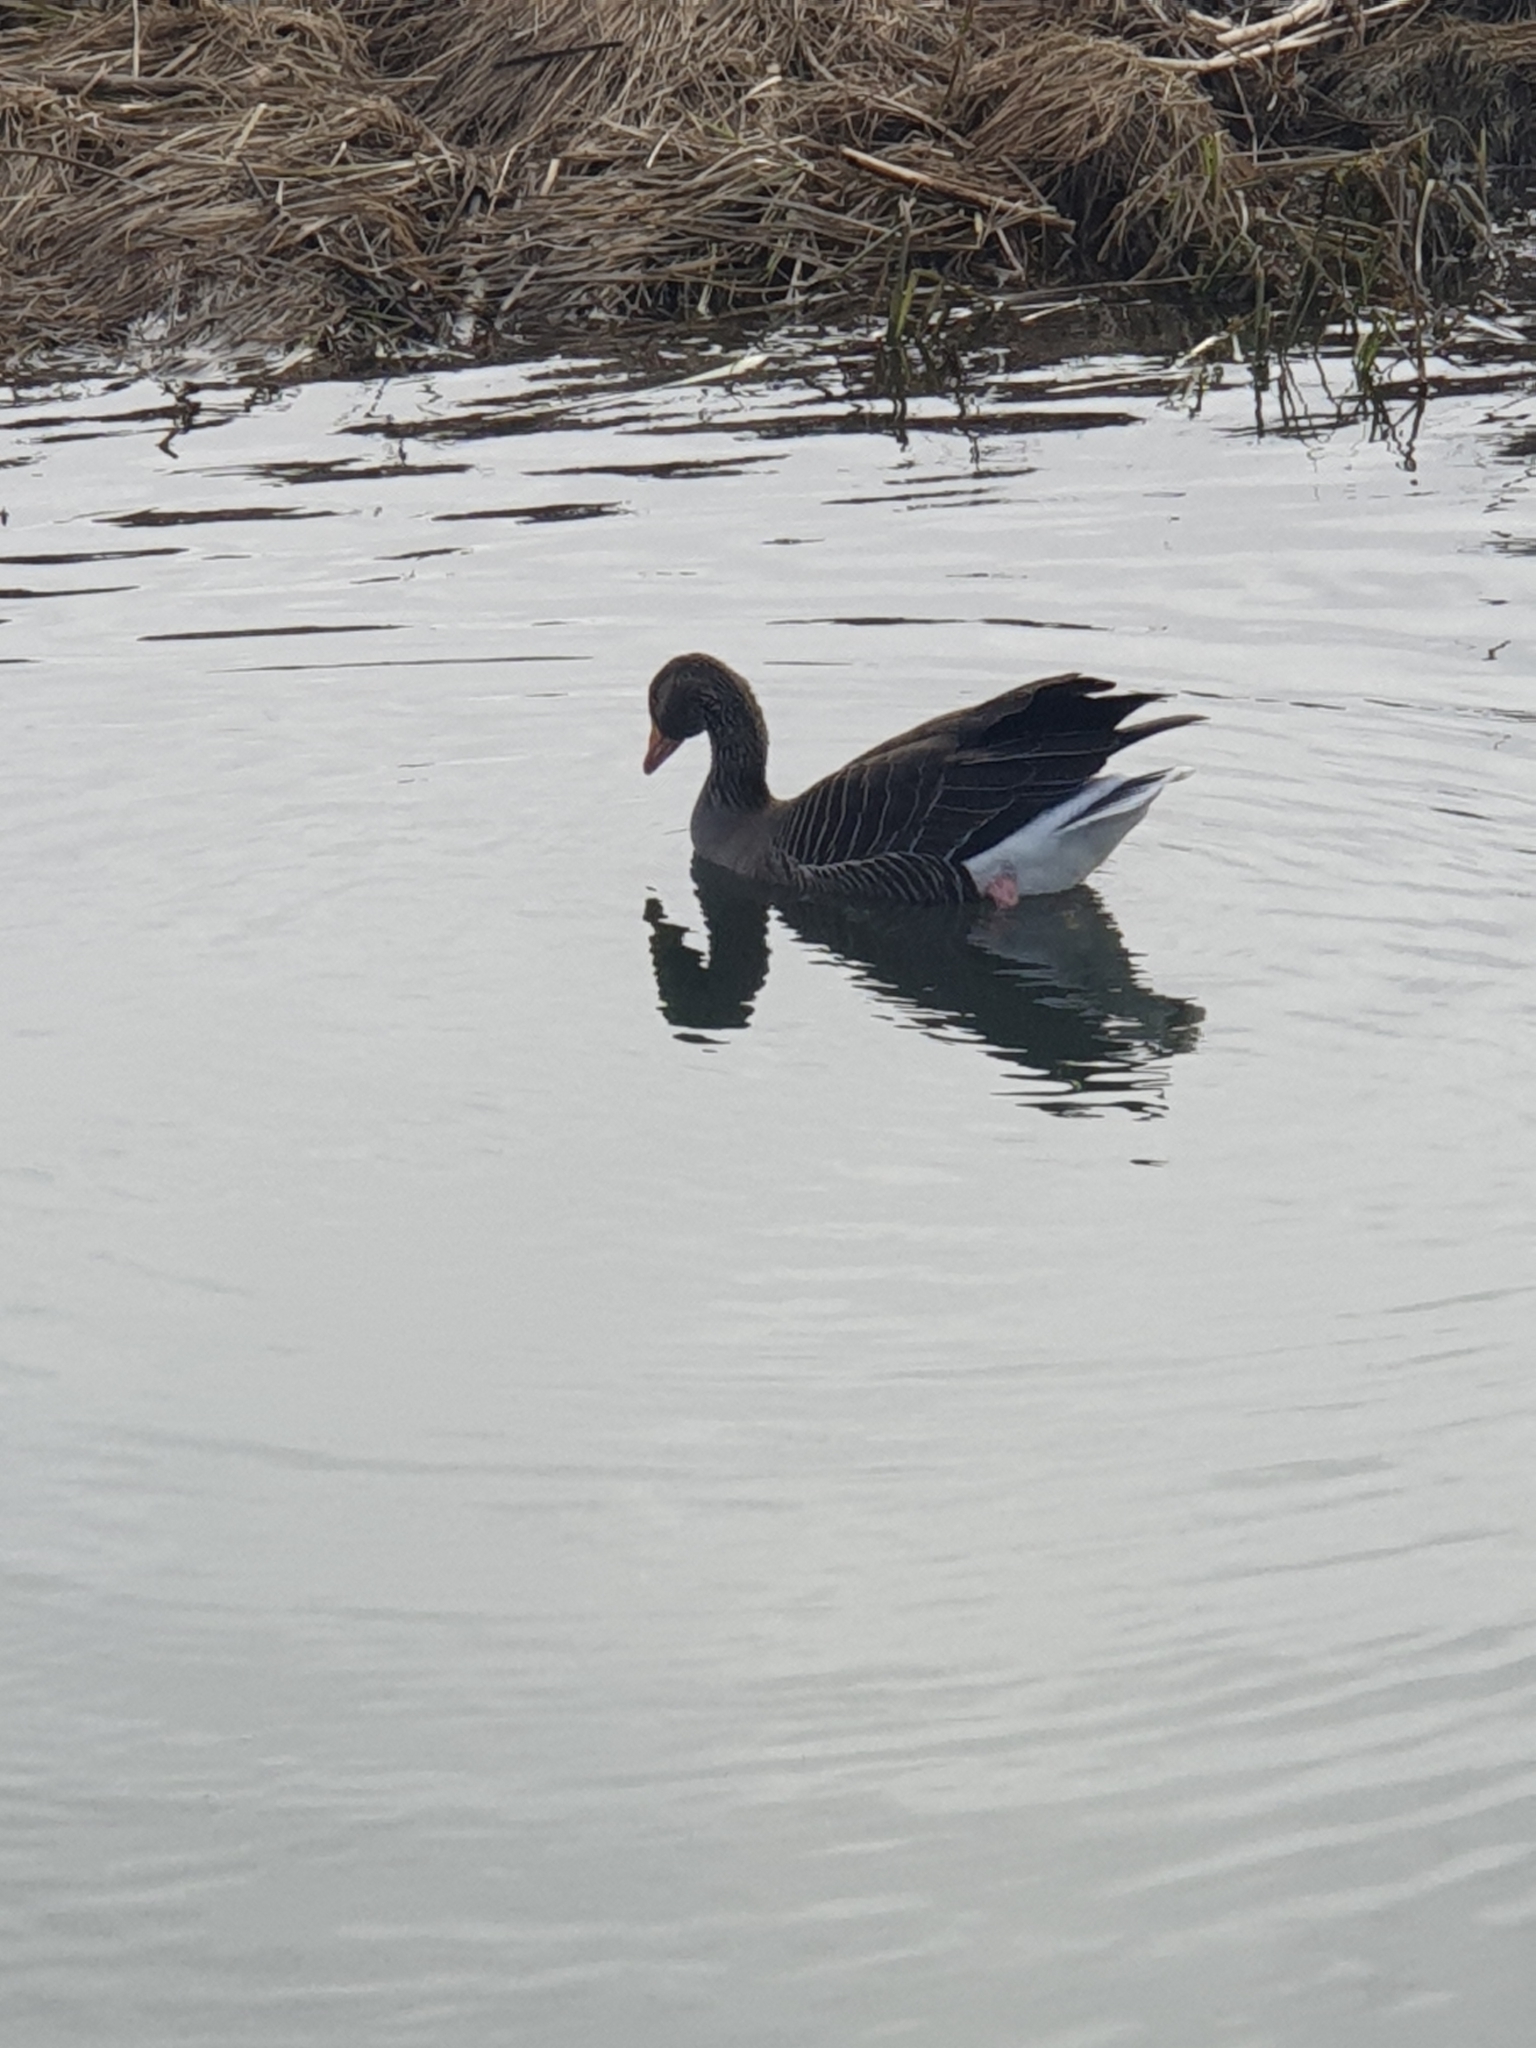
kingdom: Animalia
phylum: Chordata
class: Aves
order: Anseriformes
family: Anatidae
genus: Anser
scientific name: Anser anser
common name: Greylag goose
